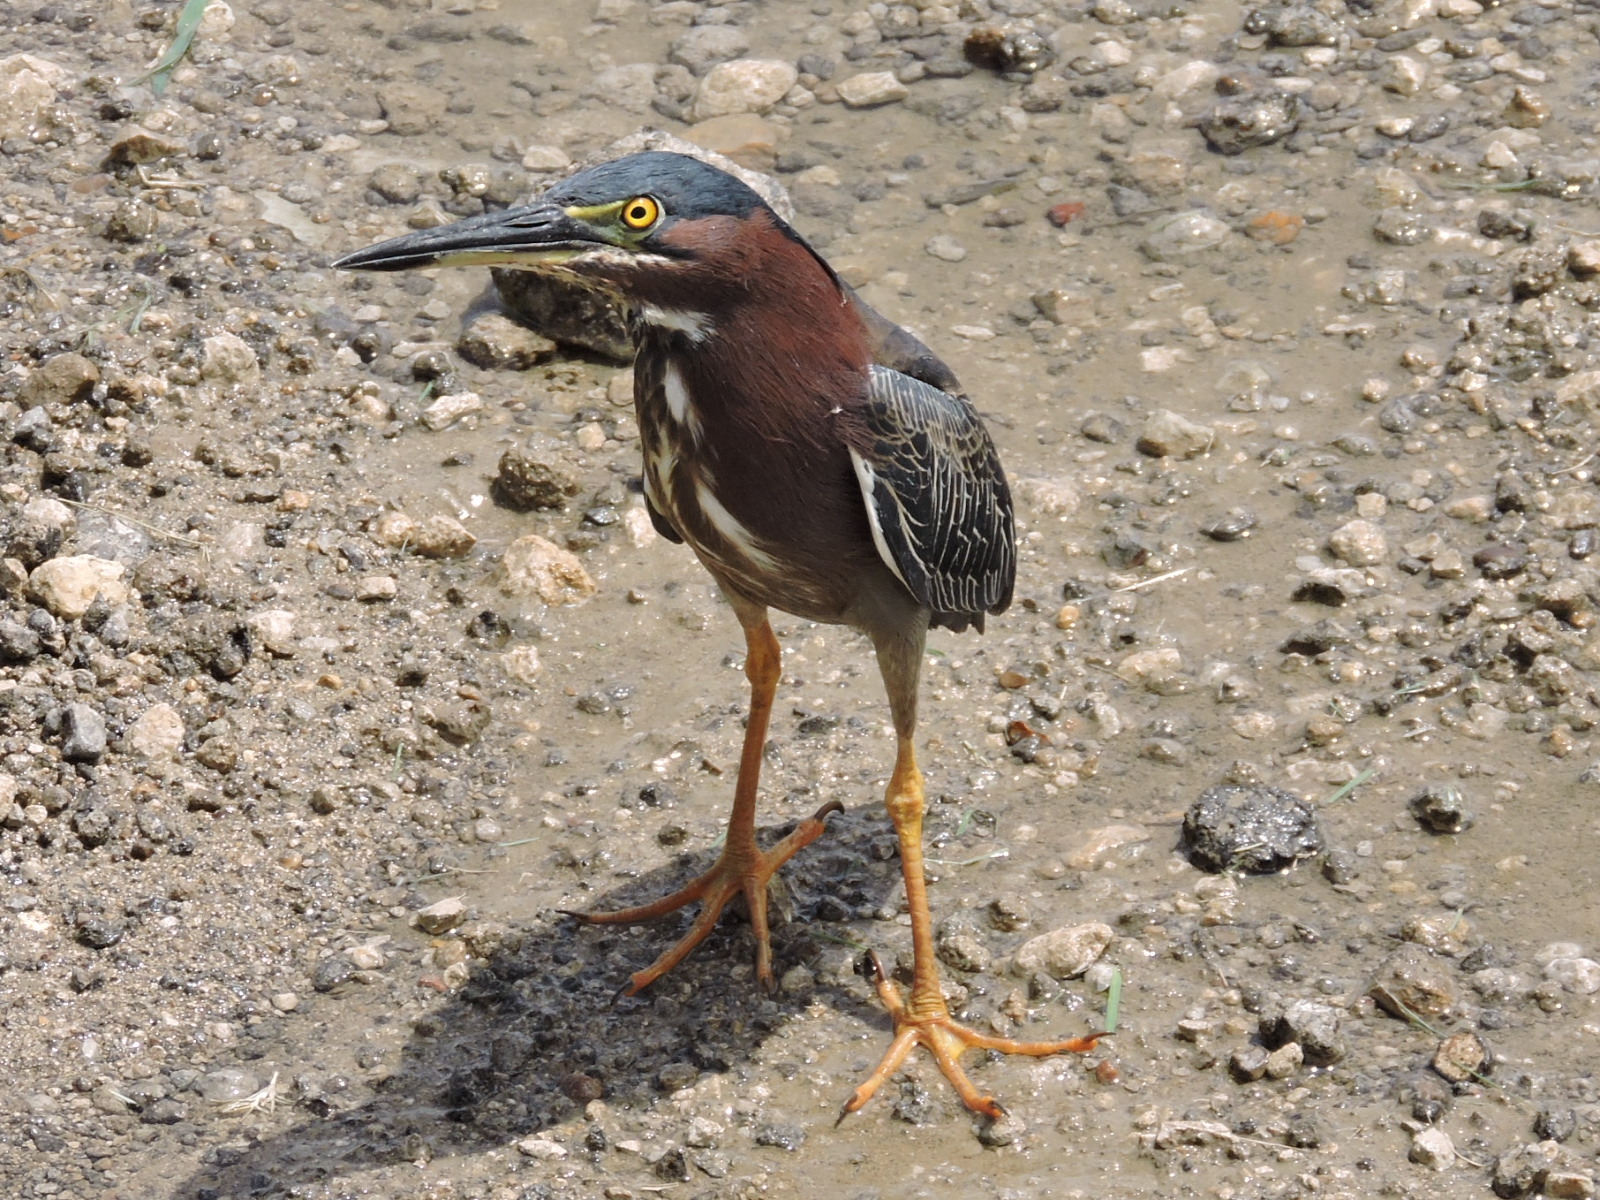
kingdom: Animalia
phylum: Chordata
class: Aves
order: Pelecaniformes
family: Ardeidae
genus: Butorides
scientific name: Butorides virescens
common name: Green heron
